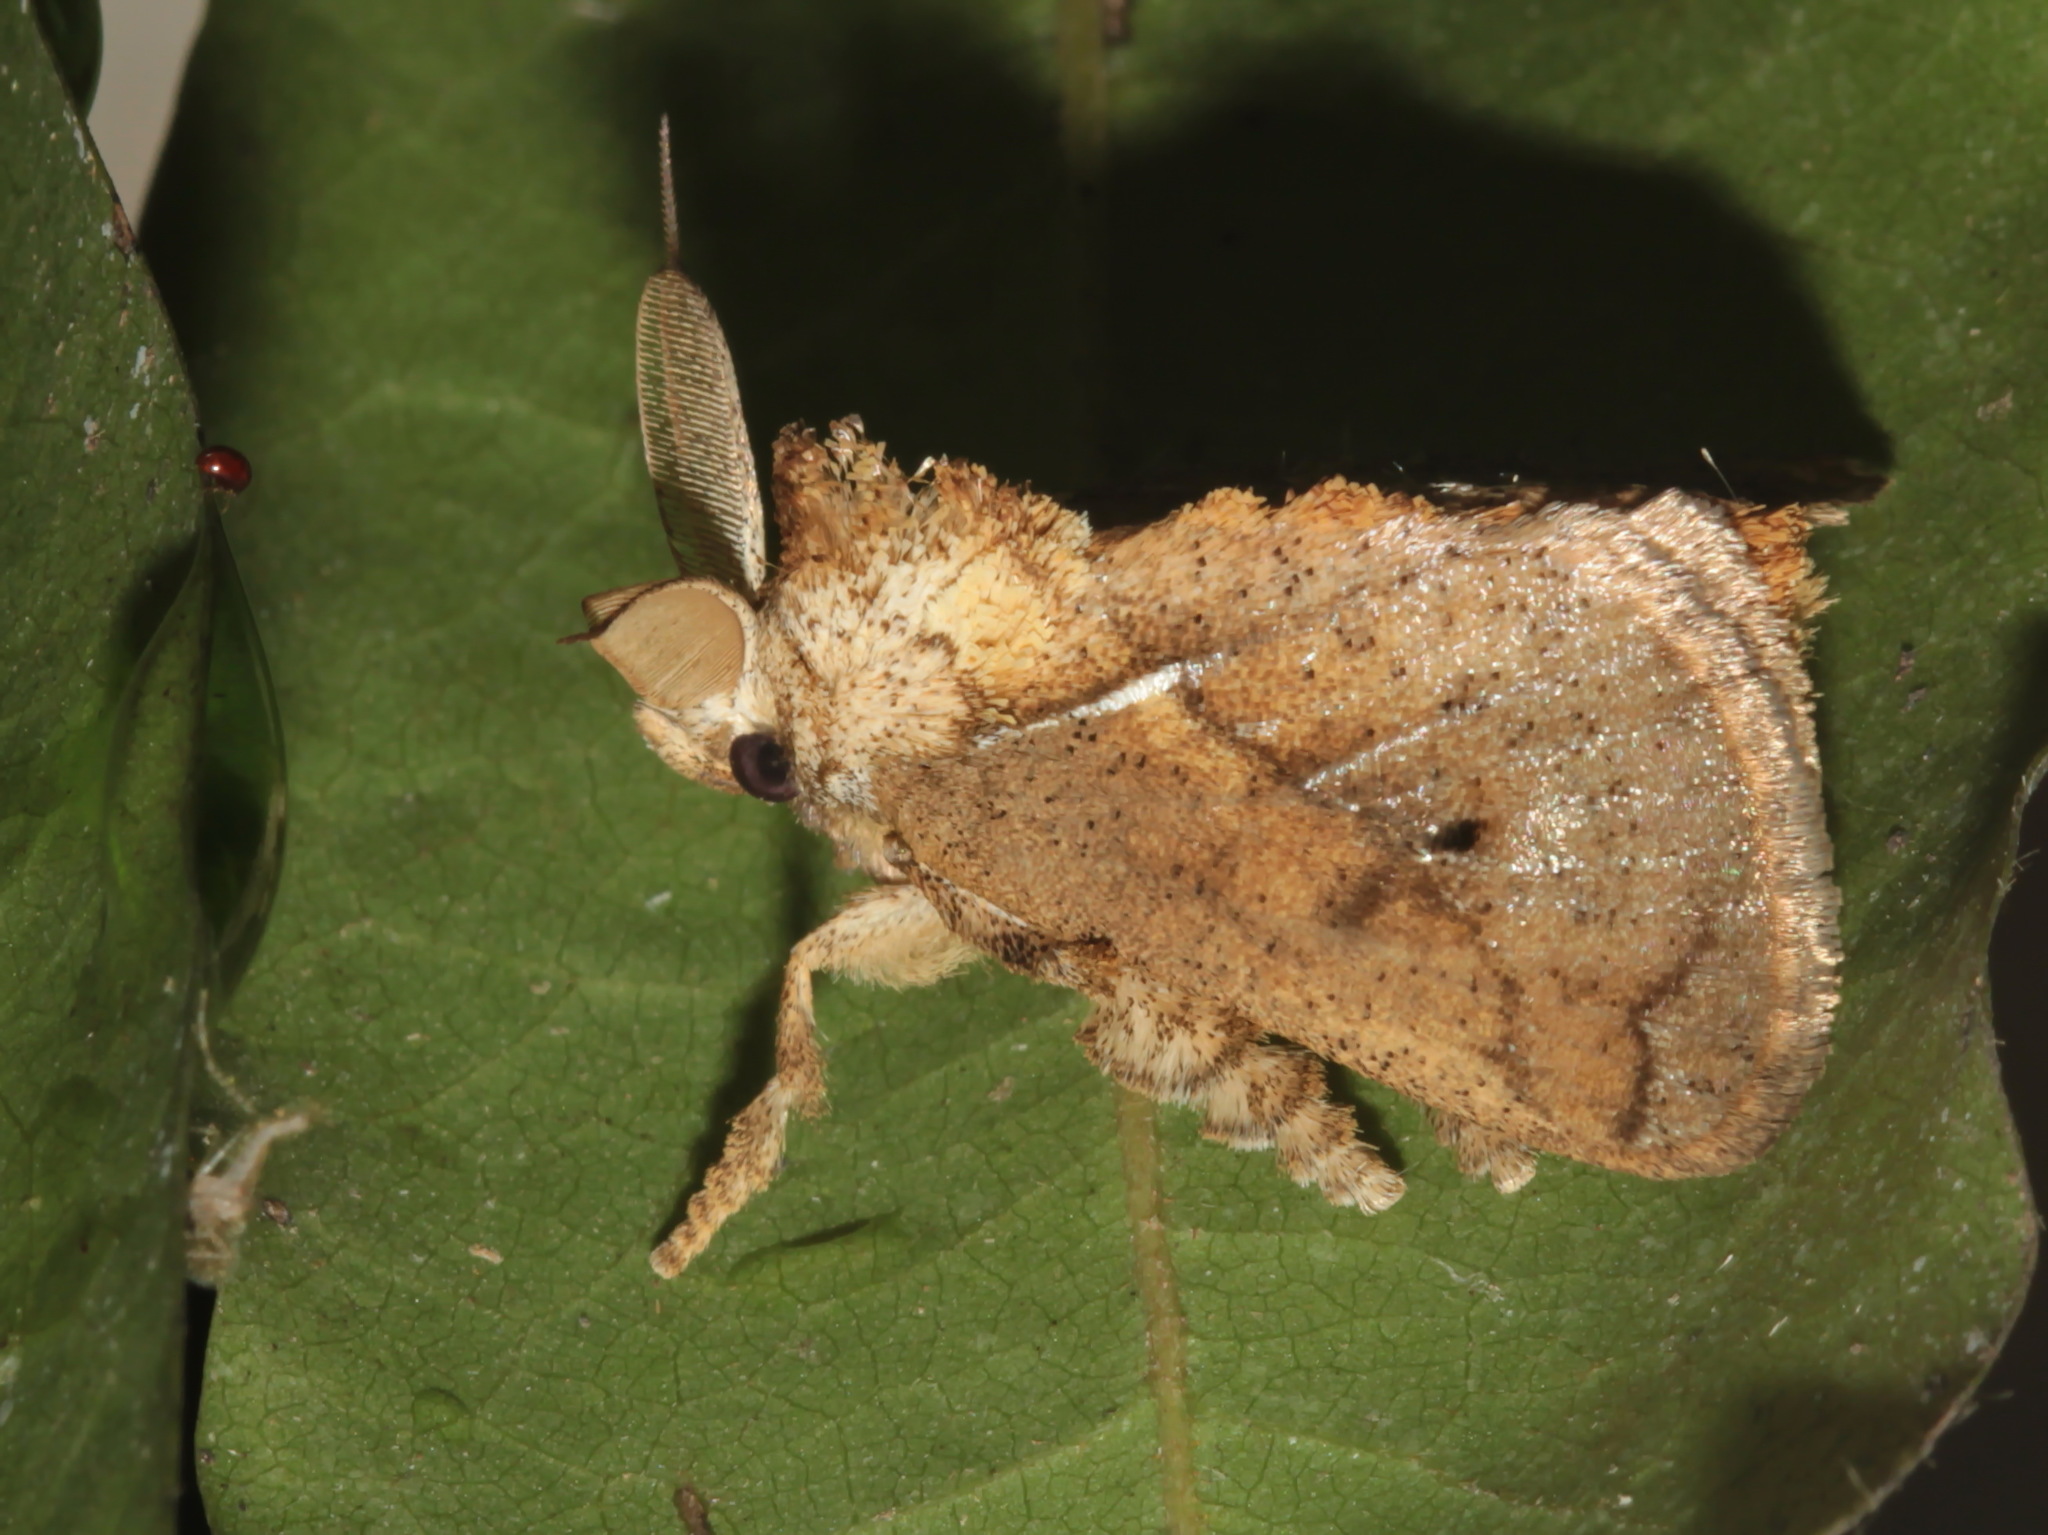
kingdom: Animalia
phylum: Arthropoda
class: Insecta
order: Lepidoptera
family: Limacodidae
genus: Susica
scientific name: Susica sinensis
